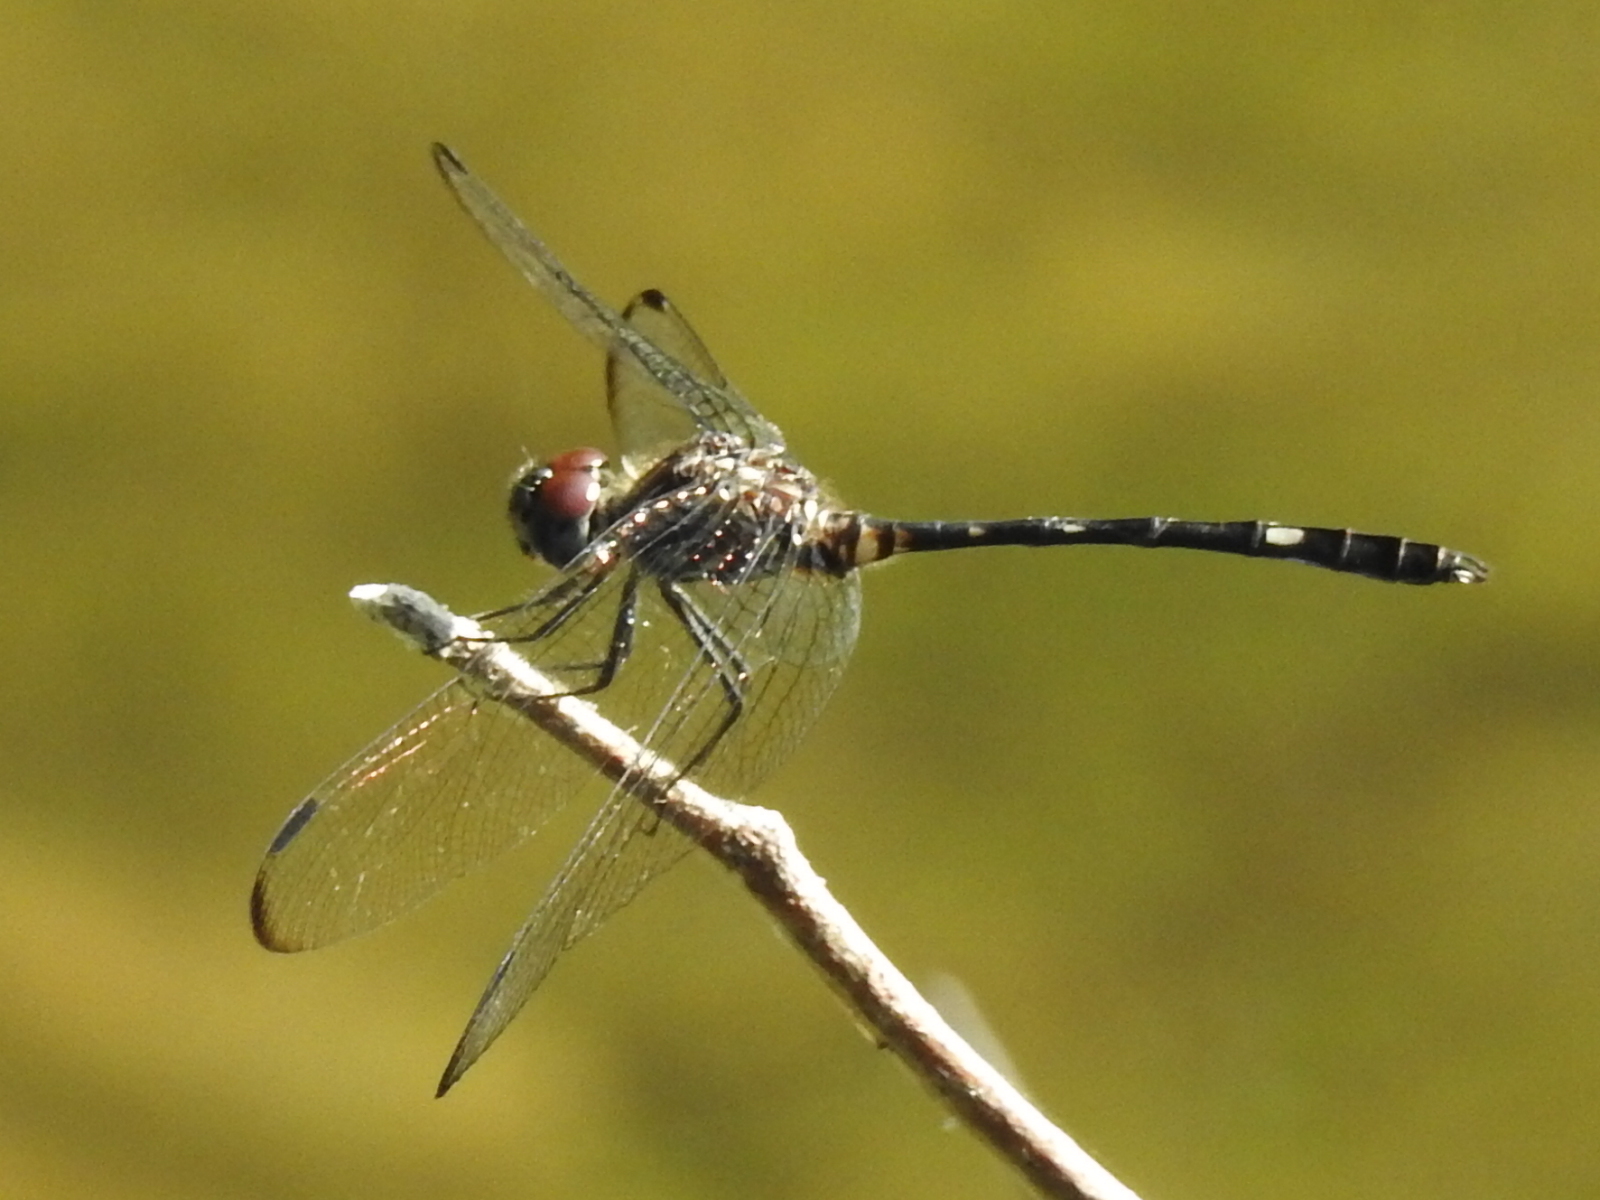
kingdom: Animalia
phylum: Arthropoda
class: Insecta
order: Odonata
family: Libellulidae
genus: Dythemis
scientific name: Dythemis velox
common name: Swift setwing
